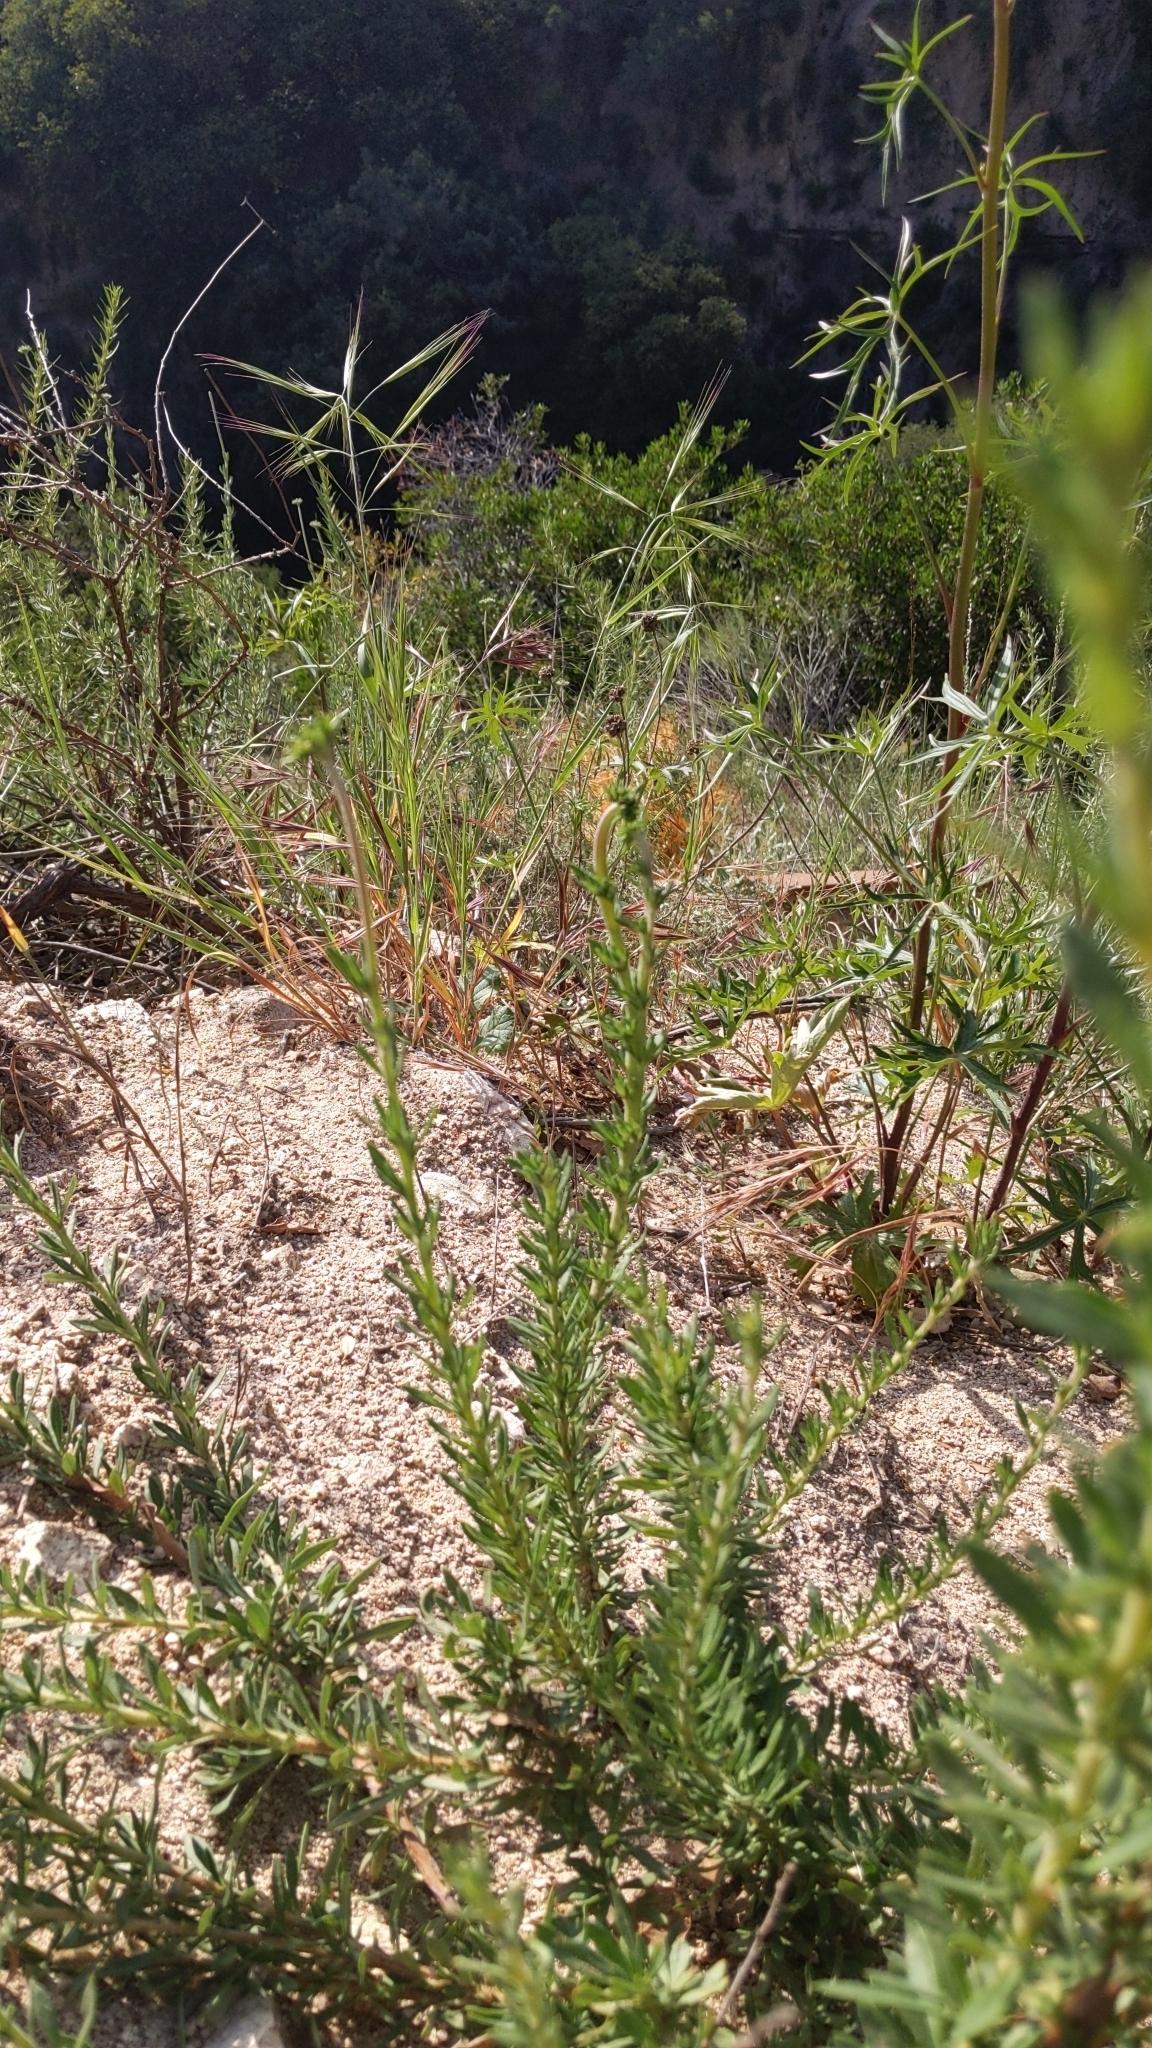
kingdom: Plantae
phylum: Tracheophyta
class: Magnoliopsida
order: Caryophyllales
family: Polygonaceae
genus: Eriogonum
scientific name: Eriogonum fasciculatum
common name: California wild buckwheat
